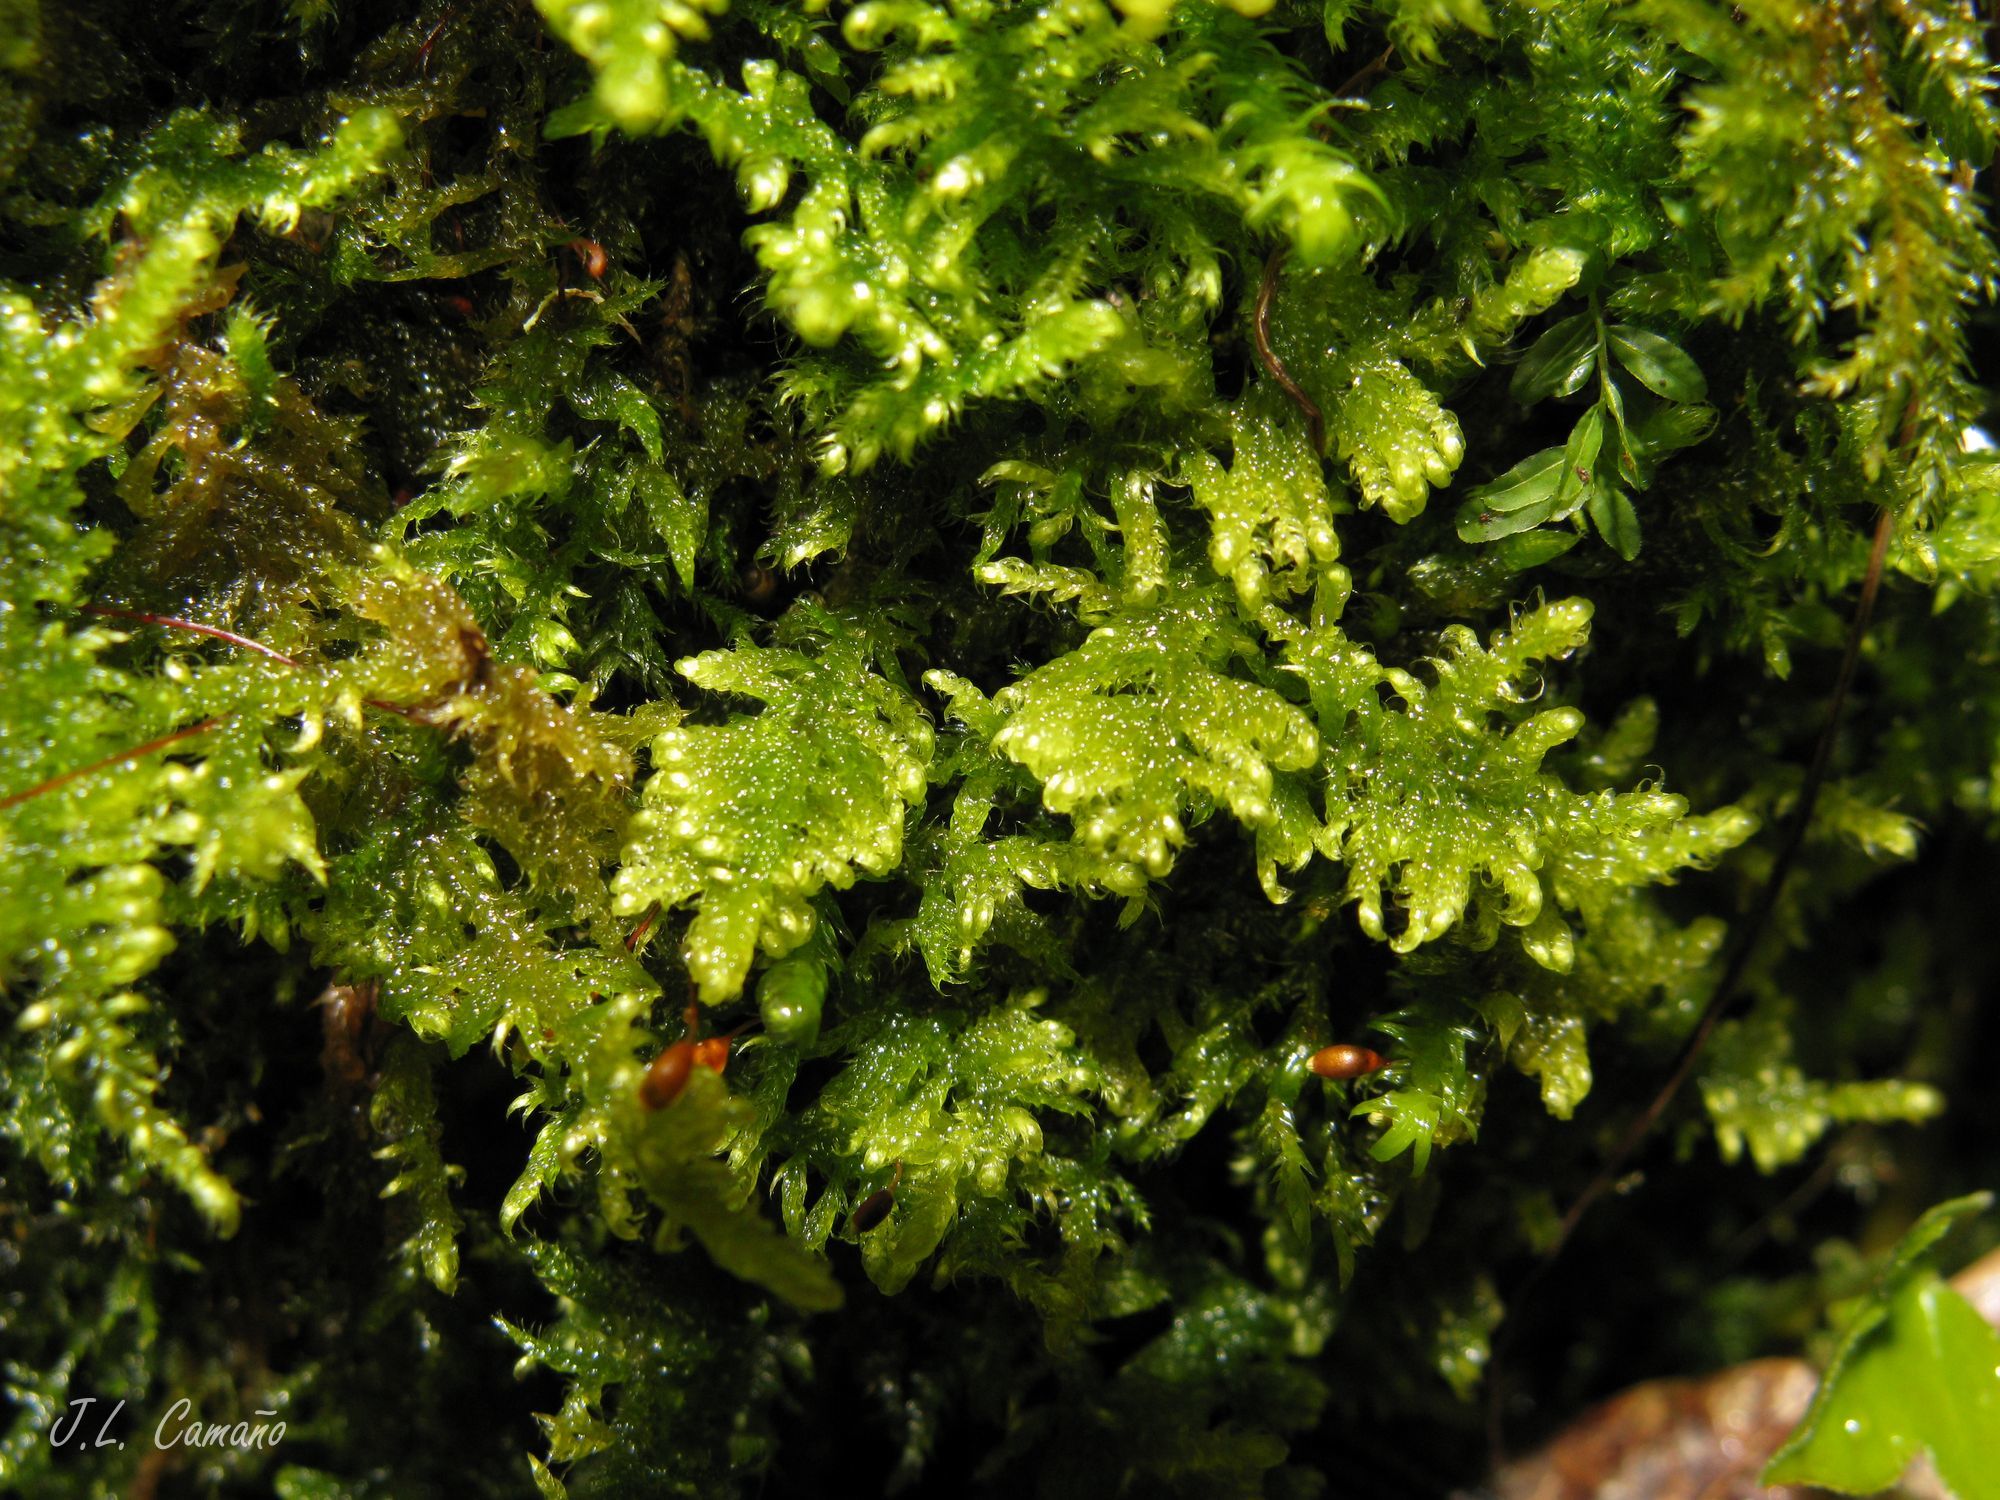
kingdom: Plantae
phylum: Bryophyta
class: Bryopsida
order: Hypnales
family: Myuriaceae
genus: Ctenidium
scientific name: Ctenidium molluscum
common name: Chalk comb-moss
